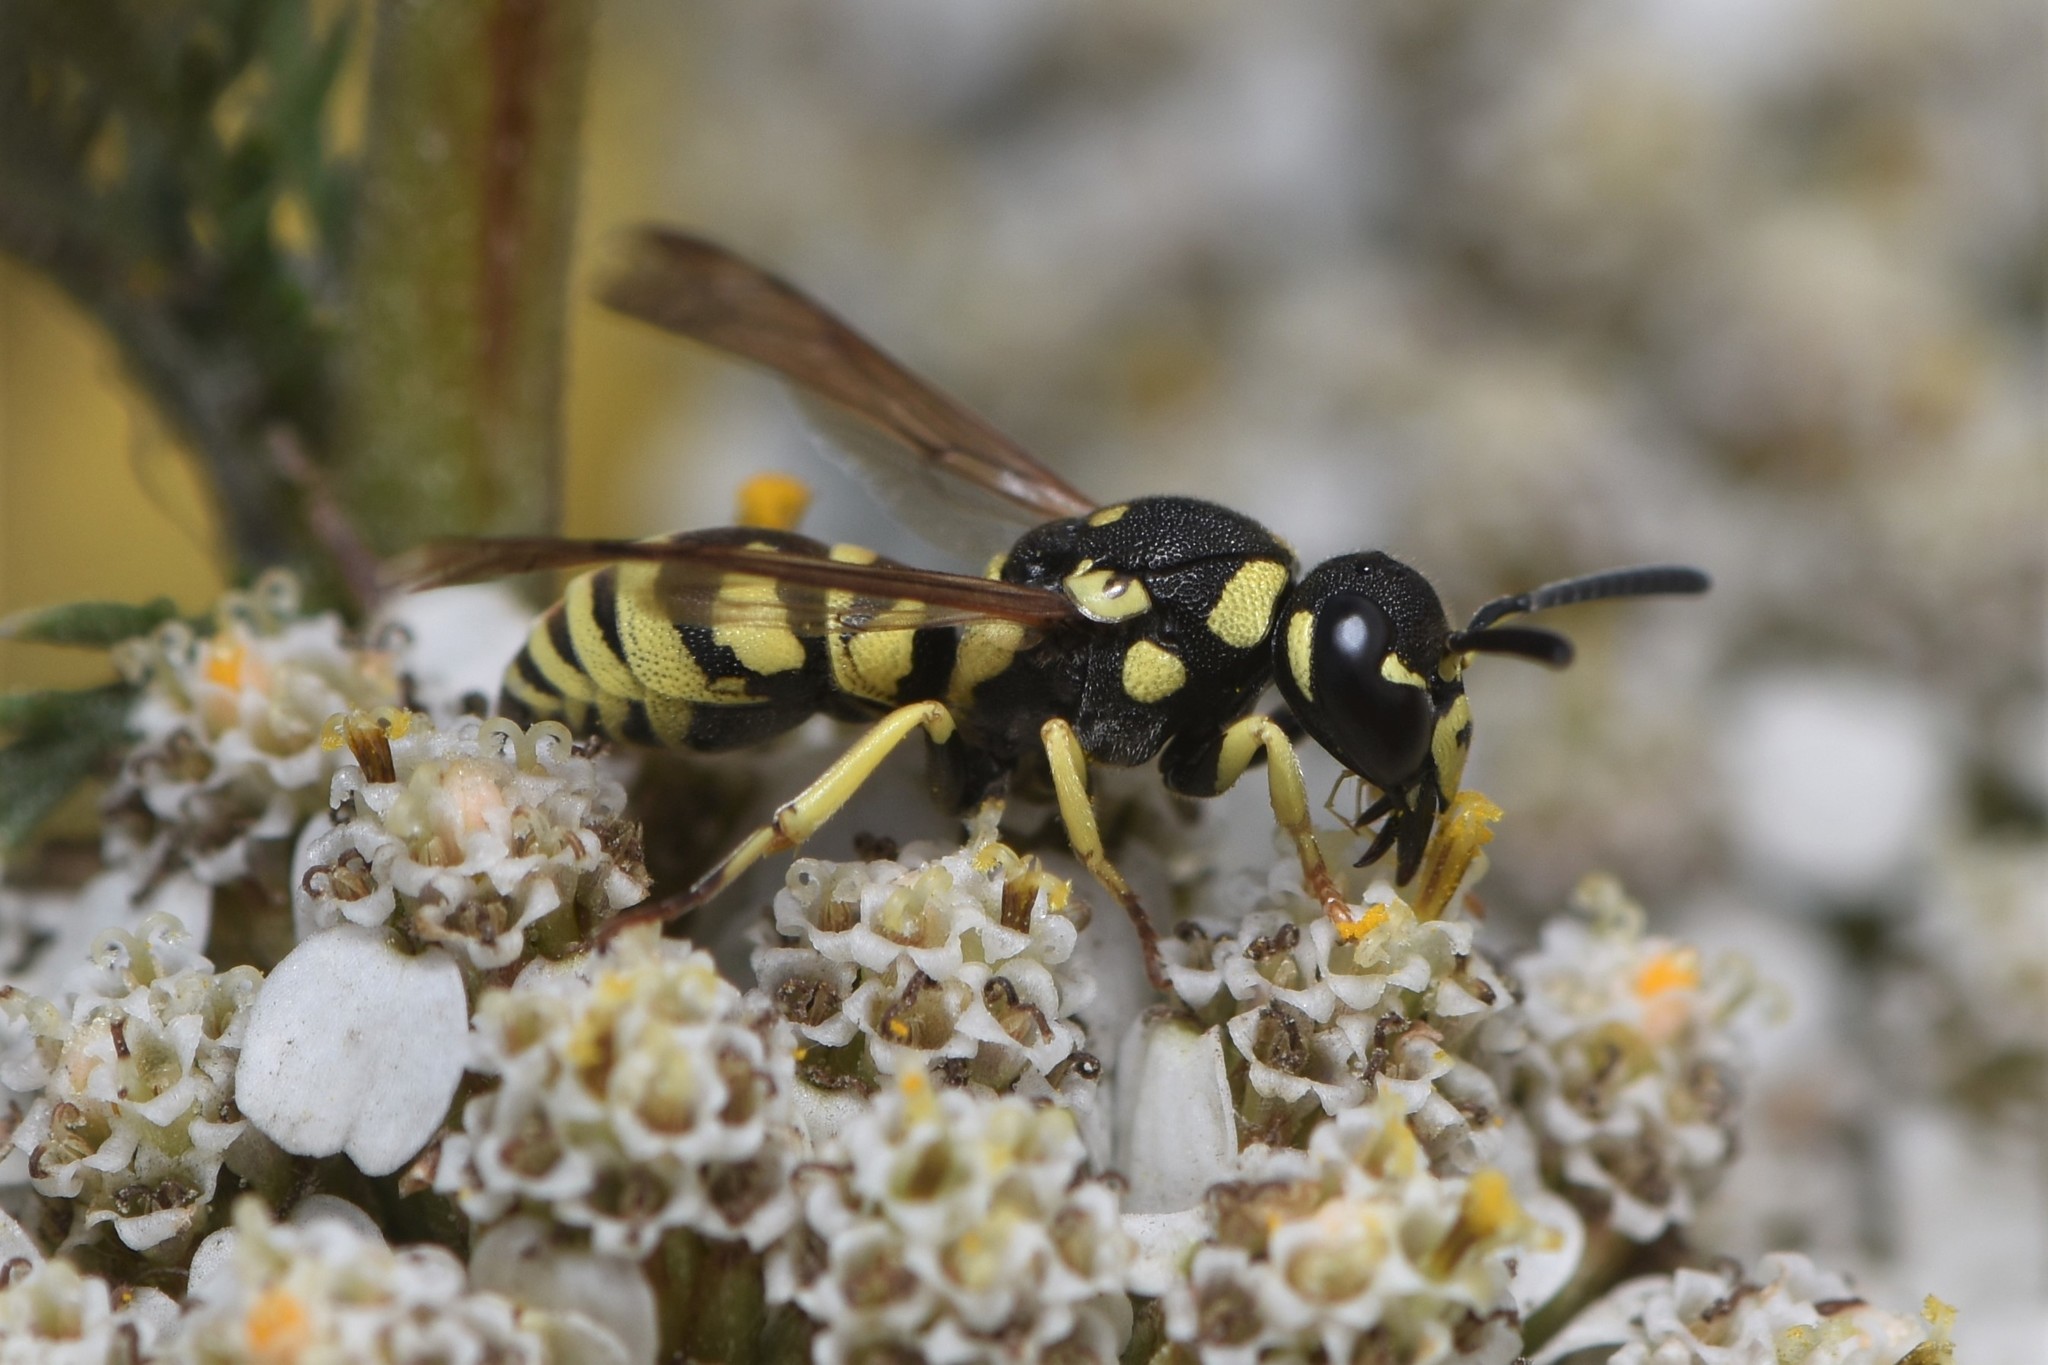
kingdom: Animalia
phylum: Arthropoda
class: Insecta
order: Hymenoptera
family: Eumenidae
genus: Rhynchalastor
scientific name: Rhynchalastor blandus
